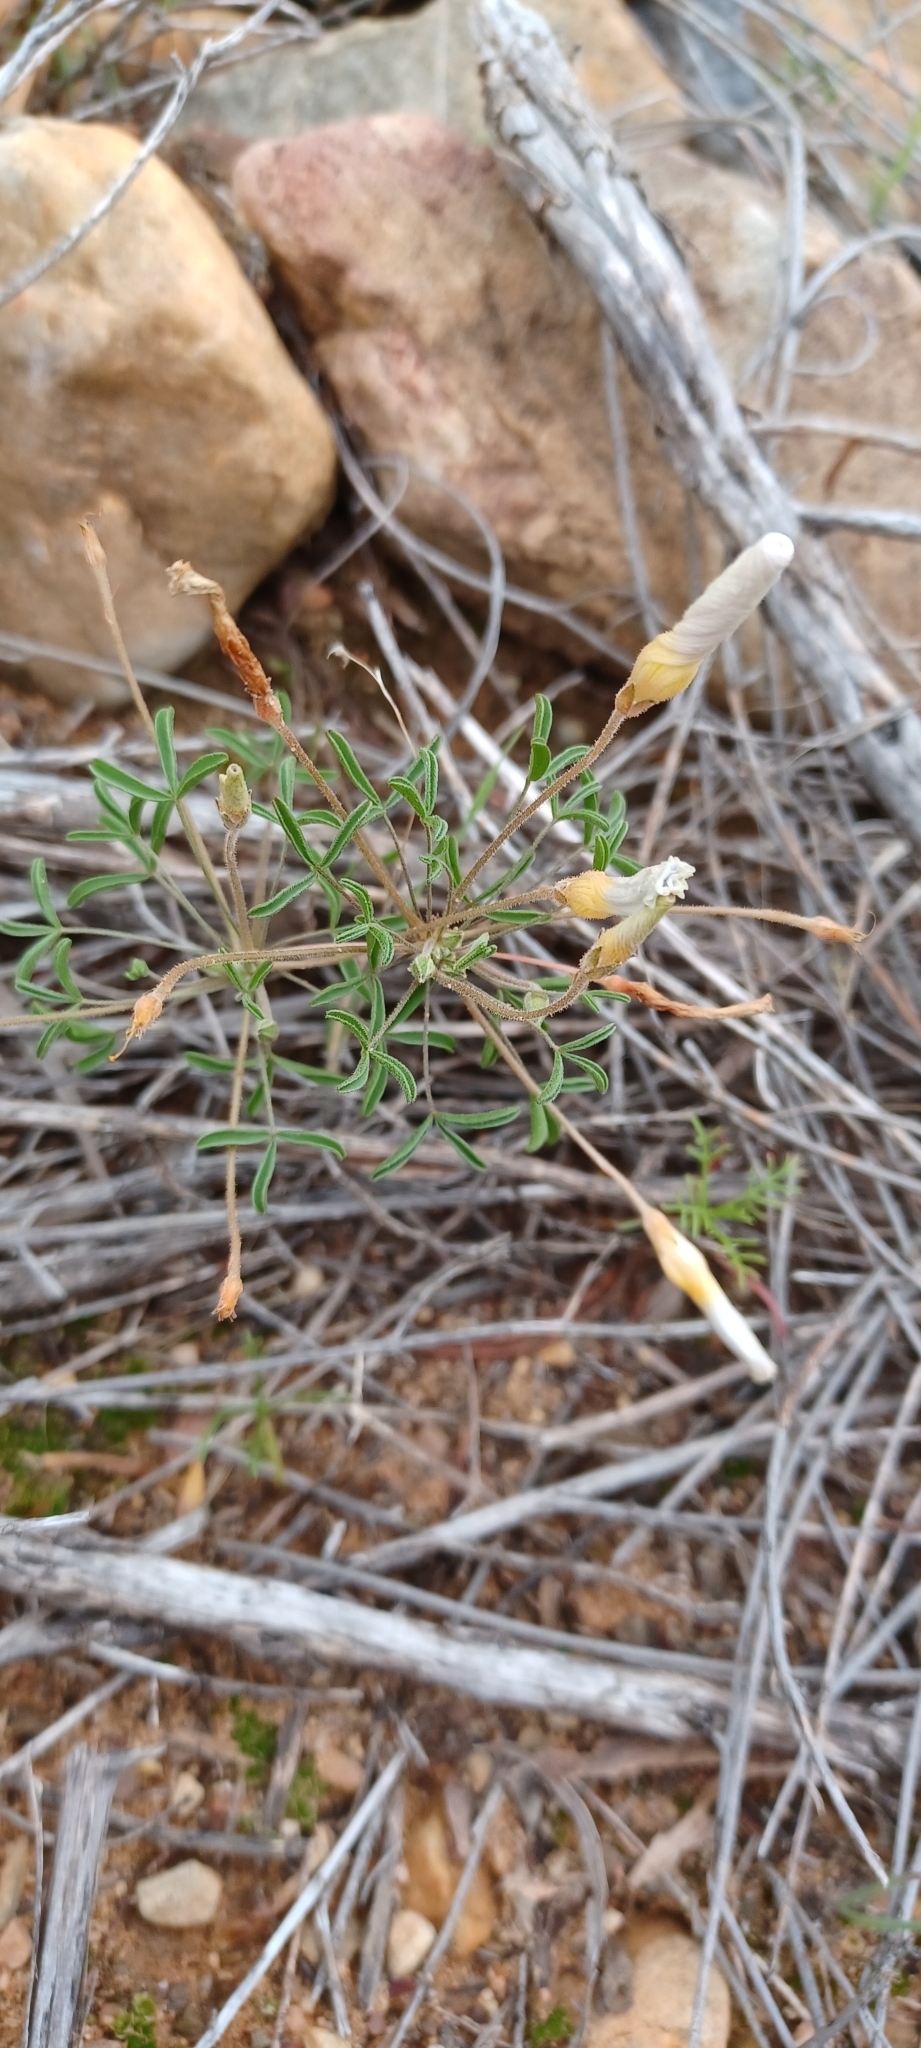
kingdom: Plantae
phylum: Tracheophyta
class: Magnoliopsida
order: Oxalidales
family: Oxalidaceae
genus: Oxalis
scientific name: Oxalis ciliaris
